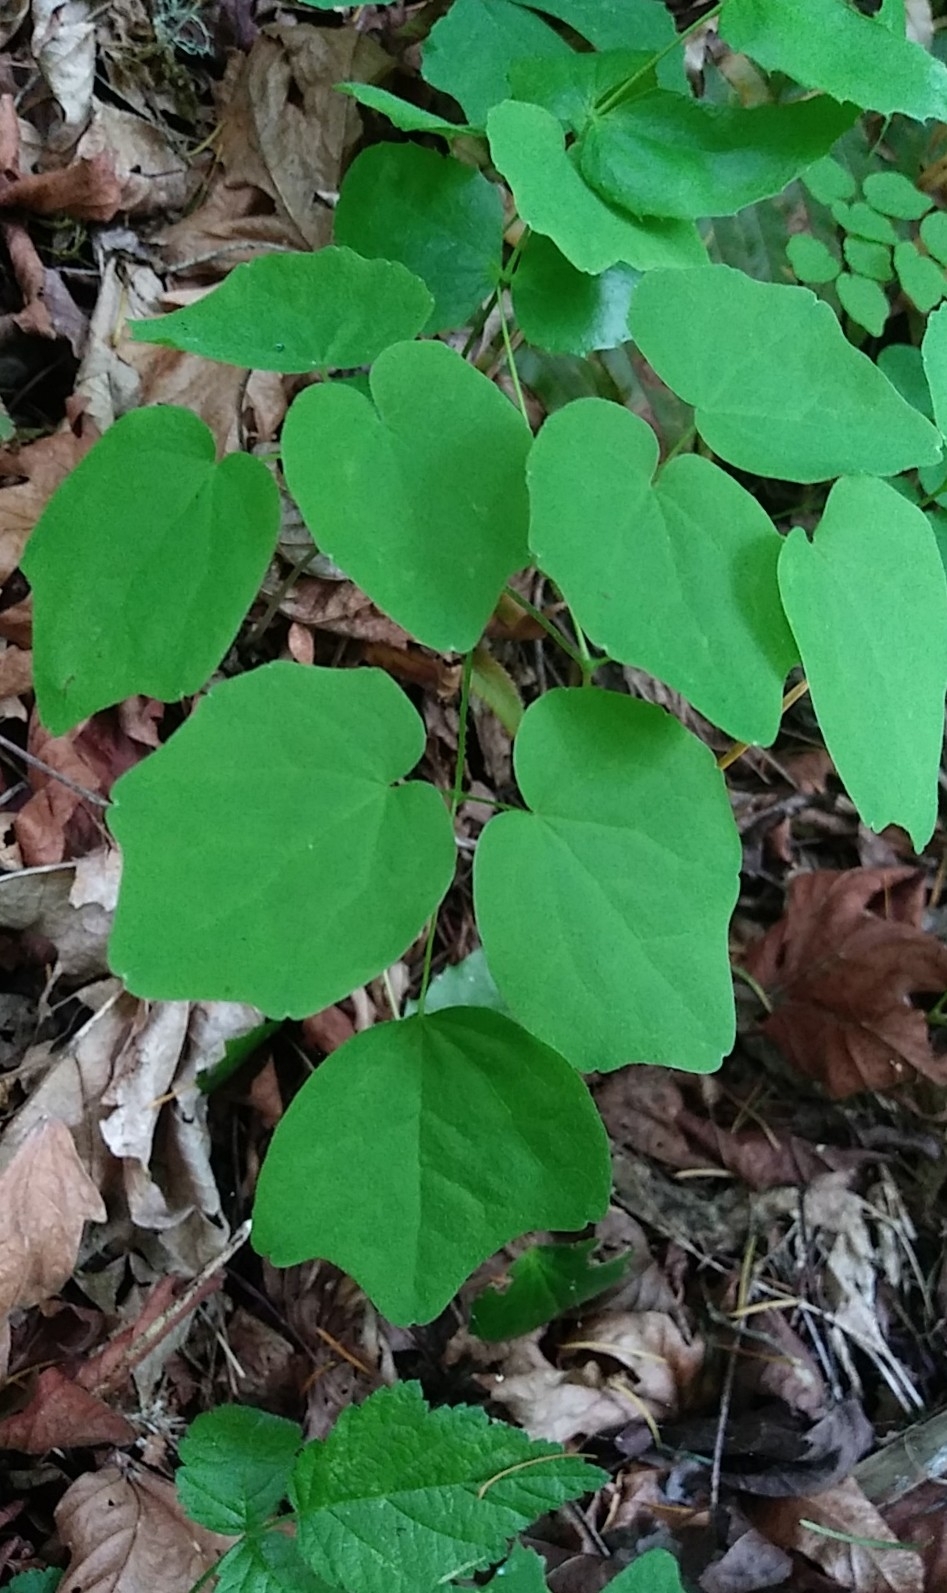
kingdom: Plantae
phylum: Tracheophyta
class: Magnoliopsida
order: Ranunculales
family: Berberidaceae
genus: Vancouveria
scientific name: Vancouveria hexandra
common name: Northern inside-out-flower
